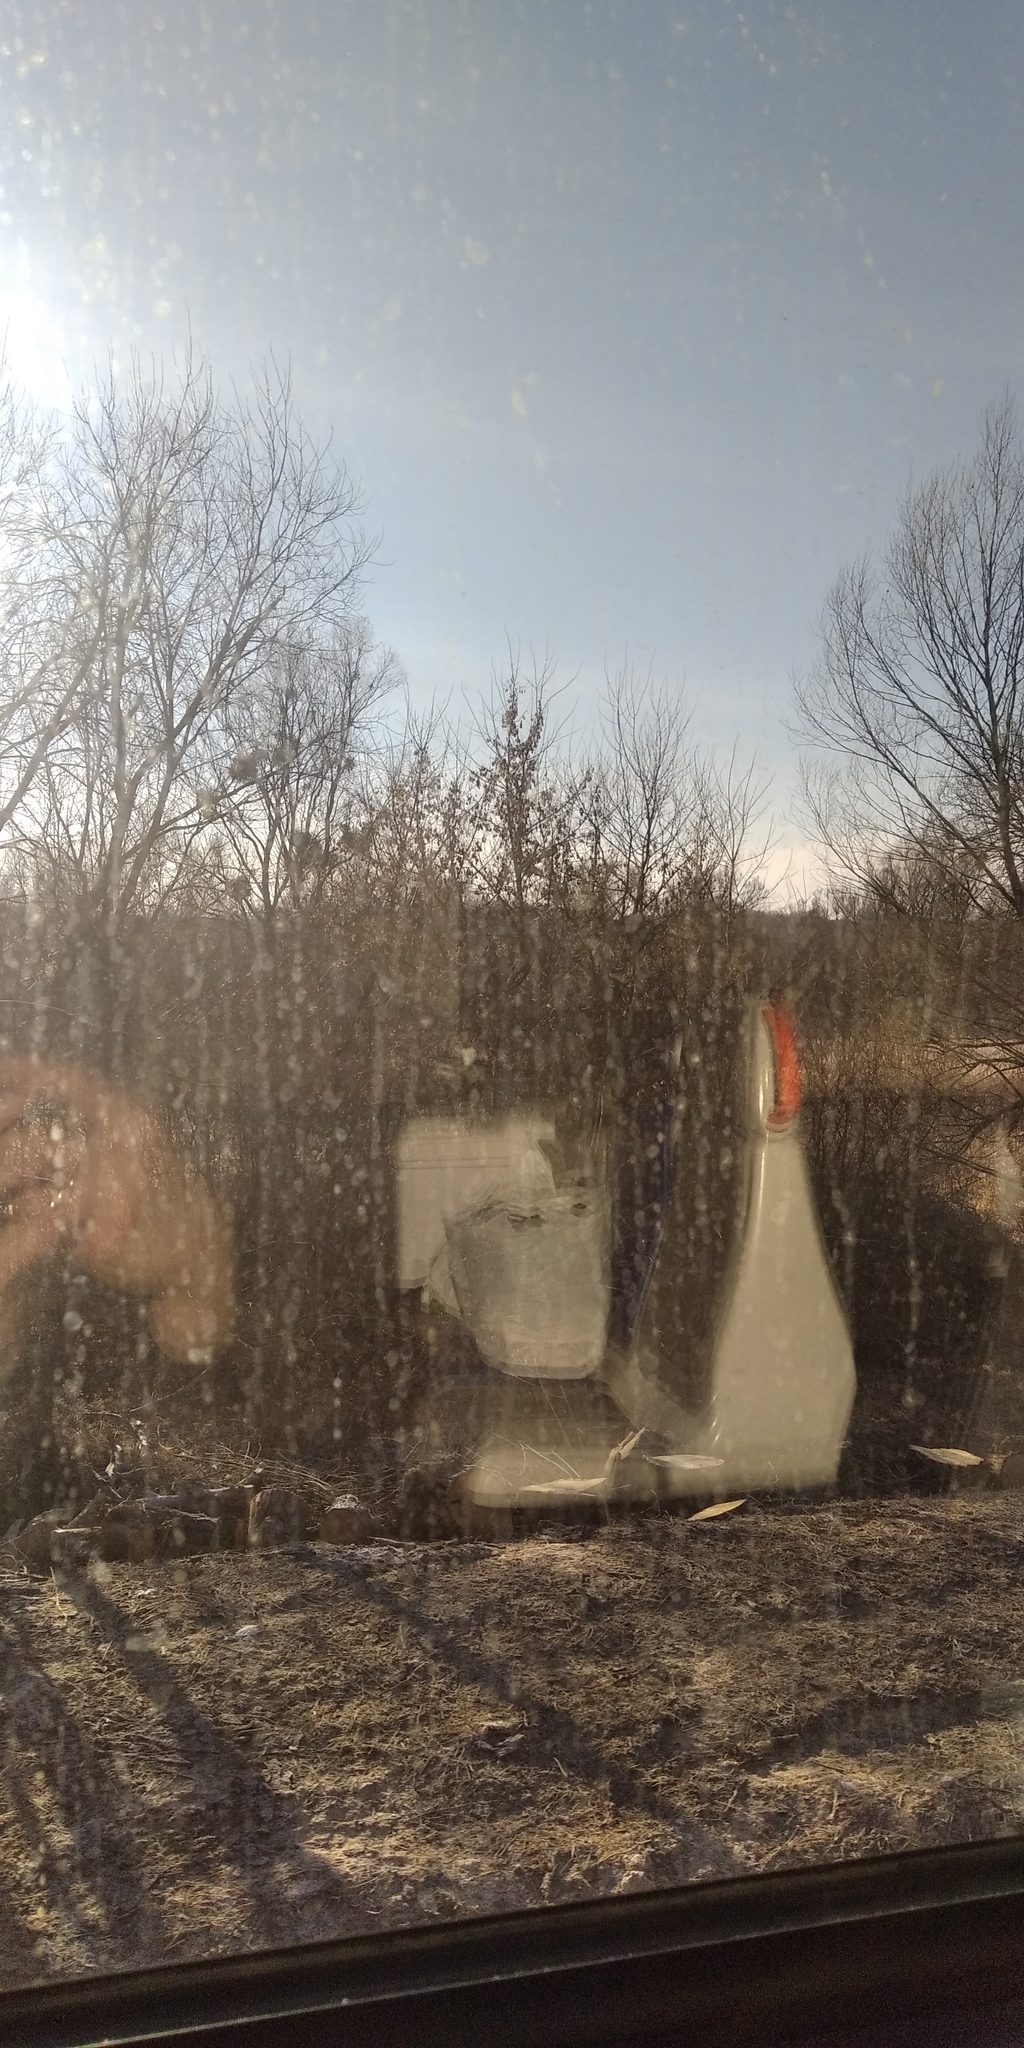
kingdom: Plantae
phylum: Tracheophyta
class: Magnoliopsida
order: Santalales
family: Viscaceae
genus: Viscum
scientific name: Viscum album
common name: Mistletoe
